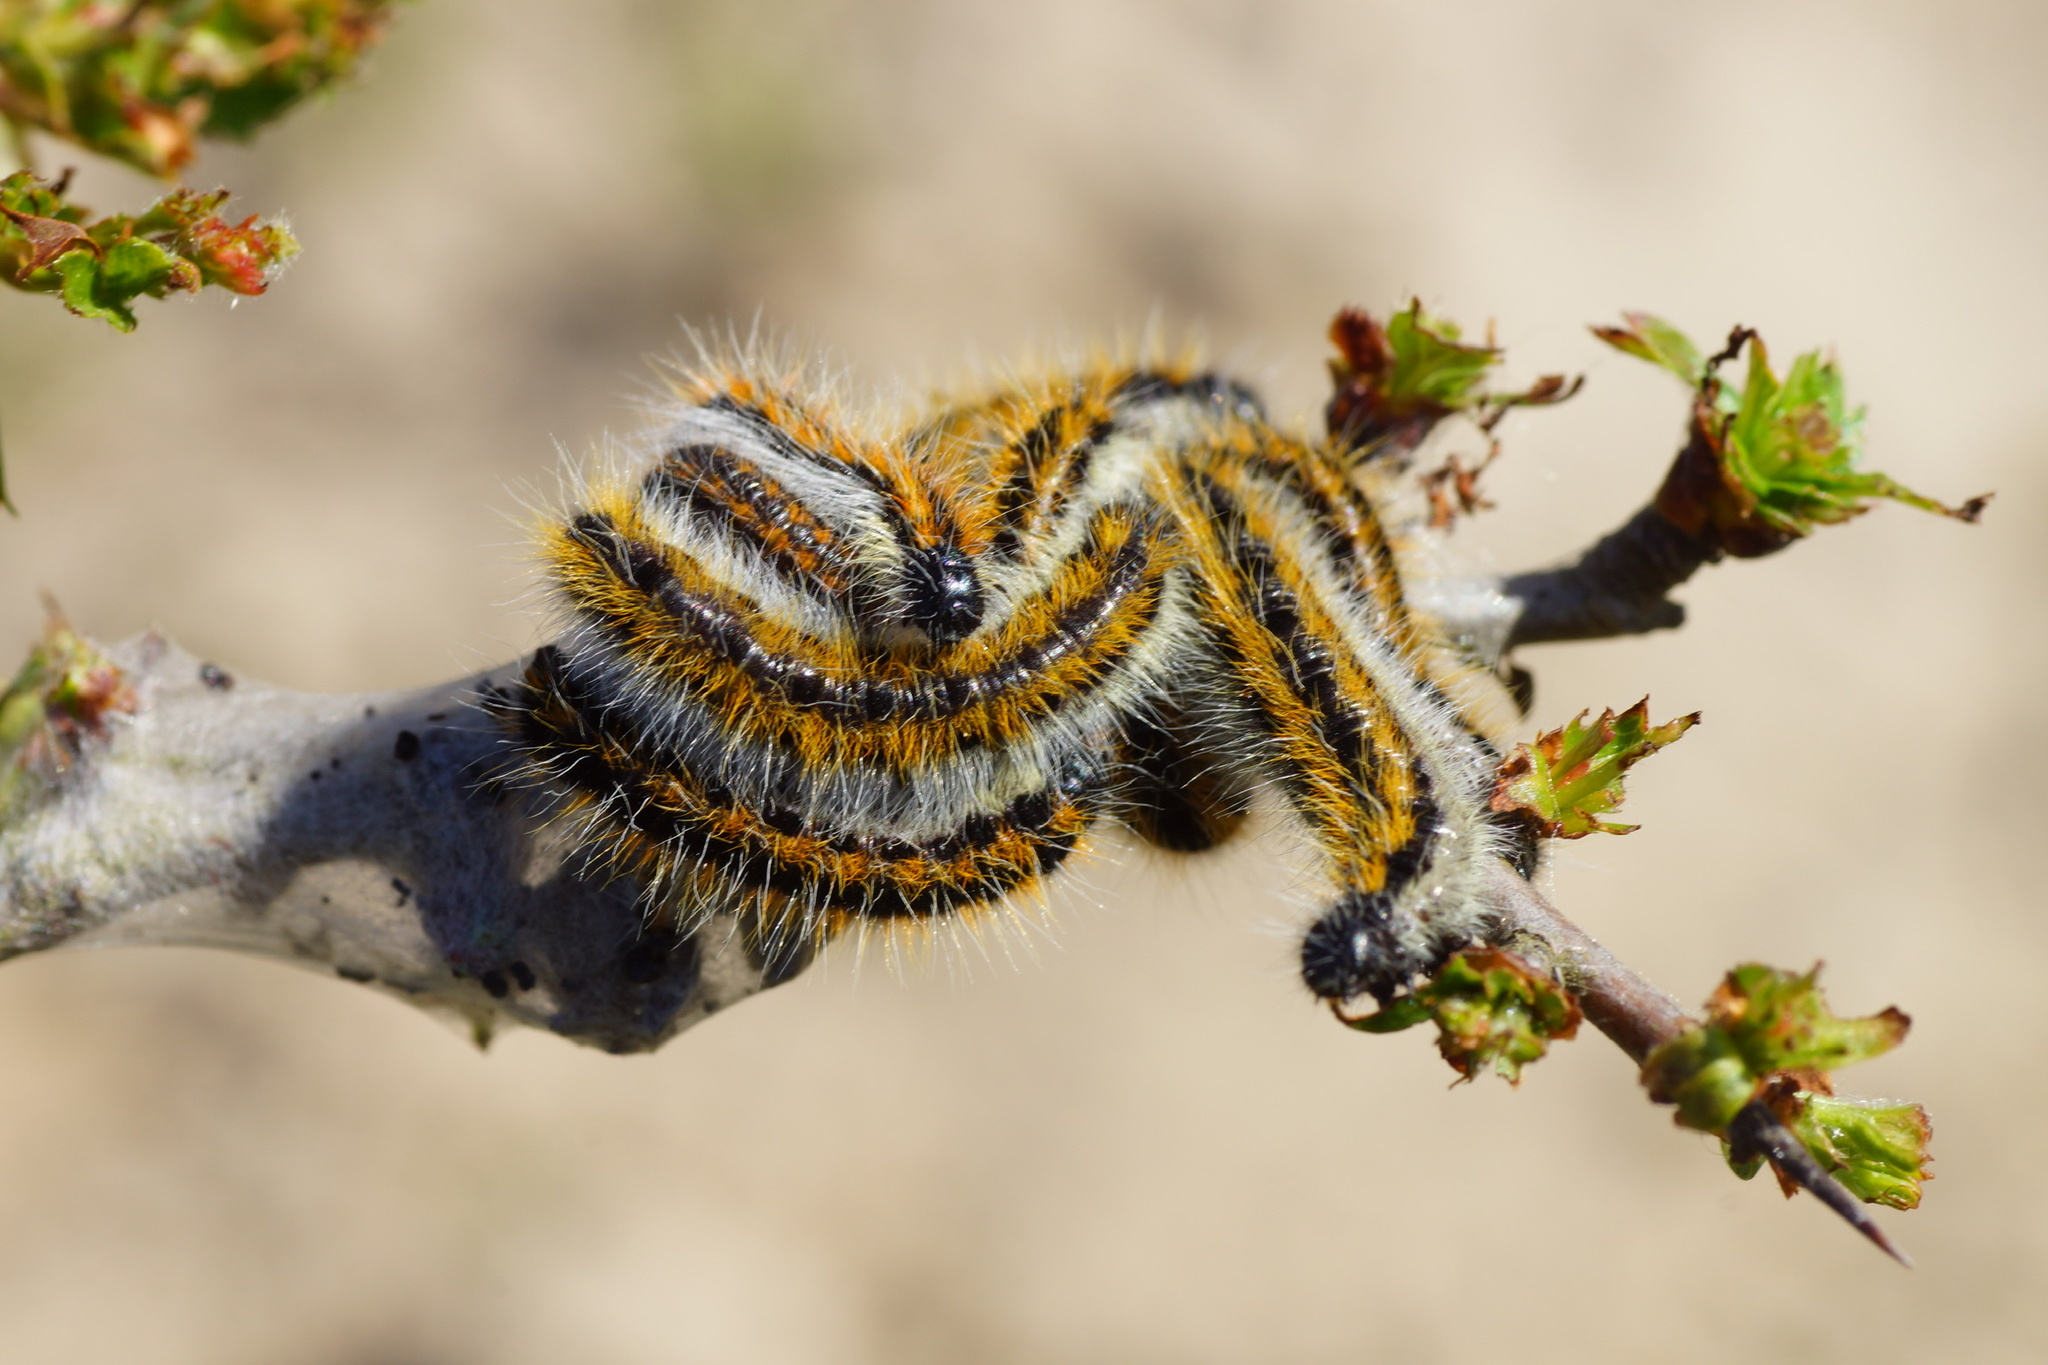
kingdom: Animalia
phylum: Arthropoda
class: Insecta
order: Lepidoptera
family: Pieridae
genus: Aporia
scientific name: Aporia crataegi
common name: Black-veined white
